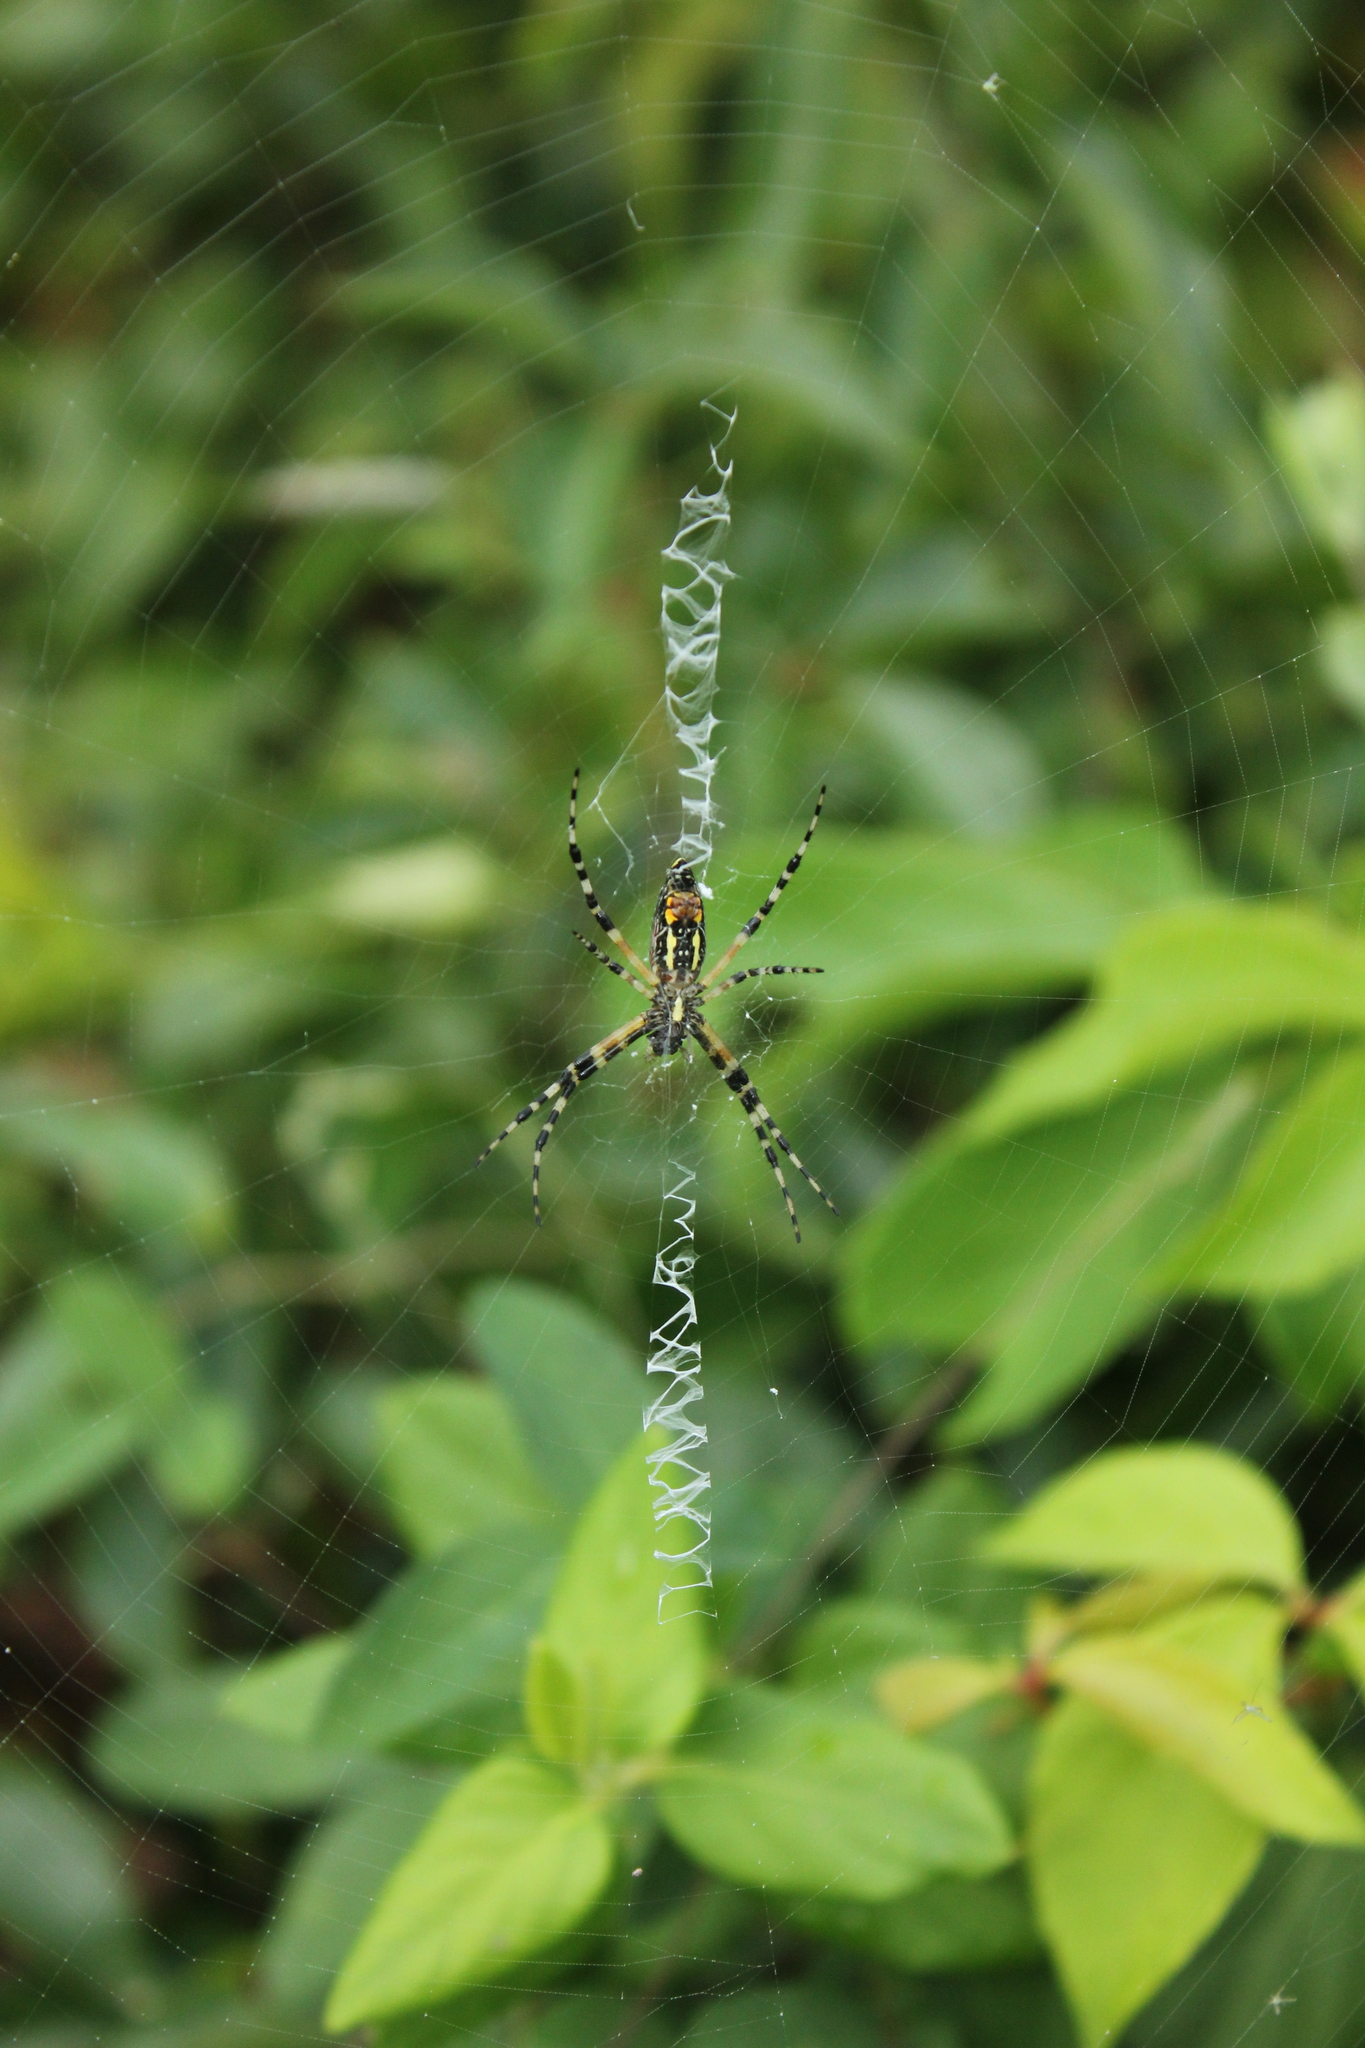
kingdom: Animalia
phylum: Arthropoda
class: Arachnida
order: Araneae
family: Araneidae
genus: Argiope
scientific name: Argiope aurantia
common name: Orb weavers
